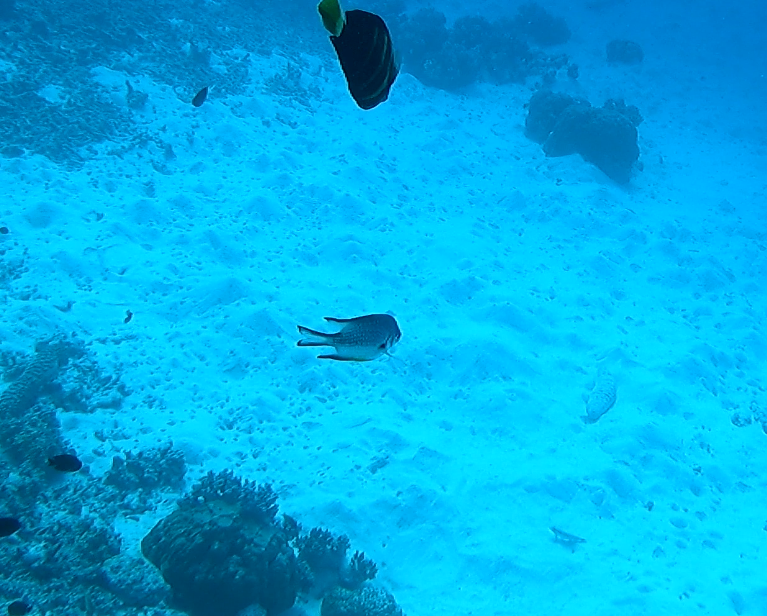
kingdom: Animalia
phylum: Chordata
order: Perciformes
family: Pomacentridae
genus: Amblyglyphidodon
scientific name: Amblyglyphidodon leucogaster
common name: White-belly damsel
